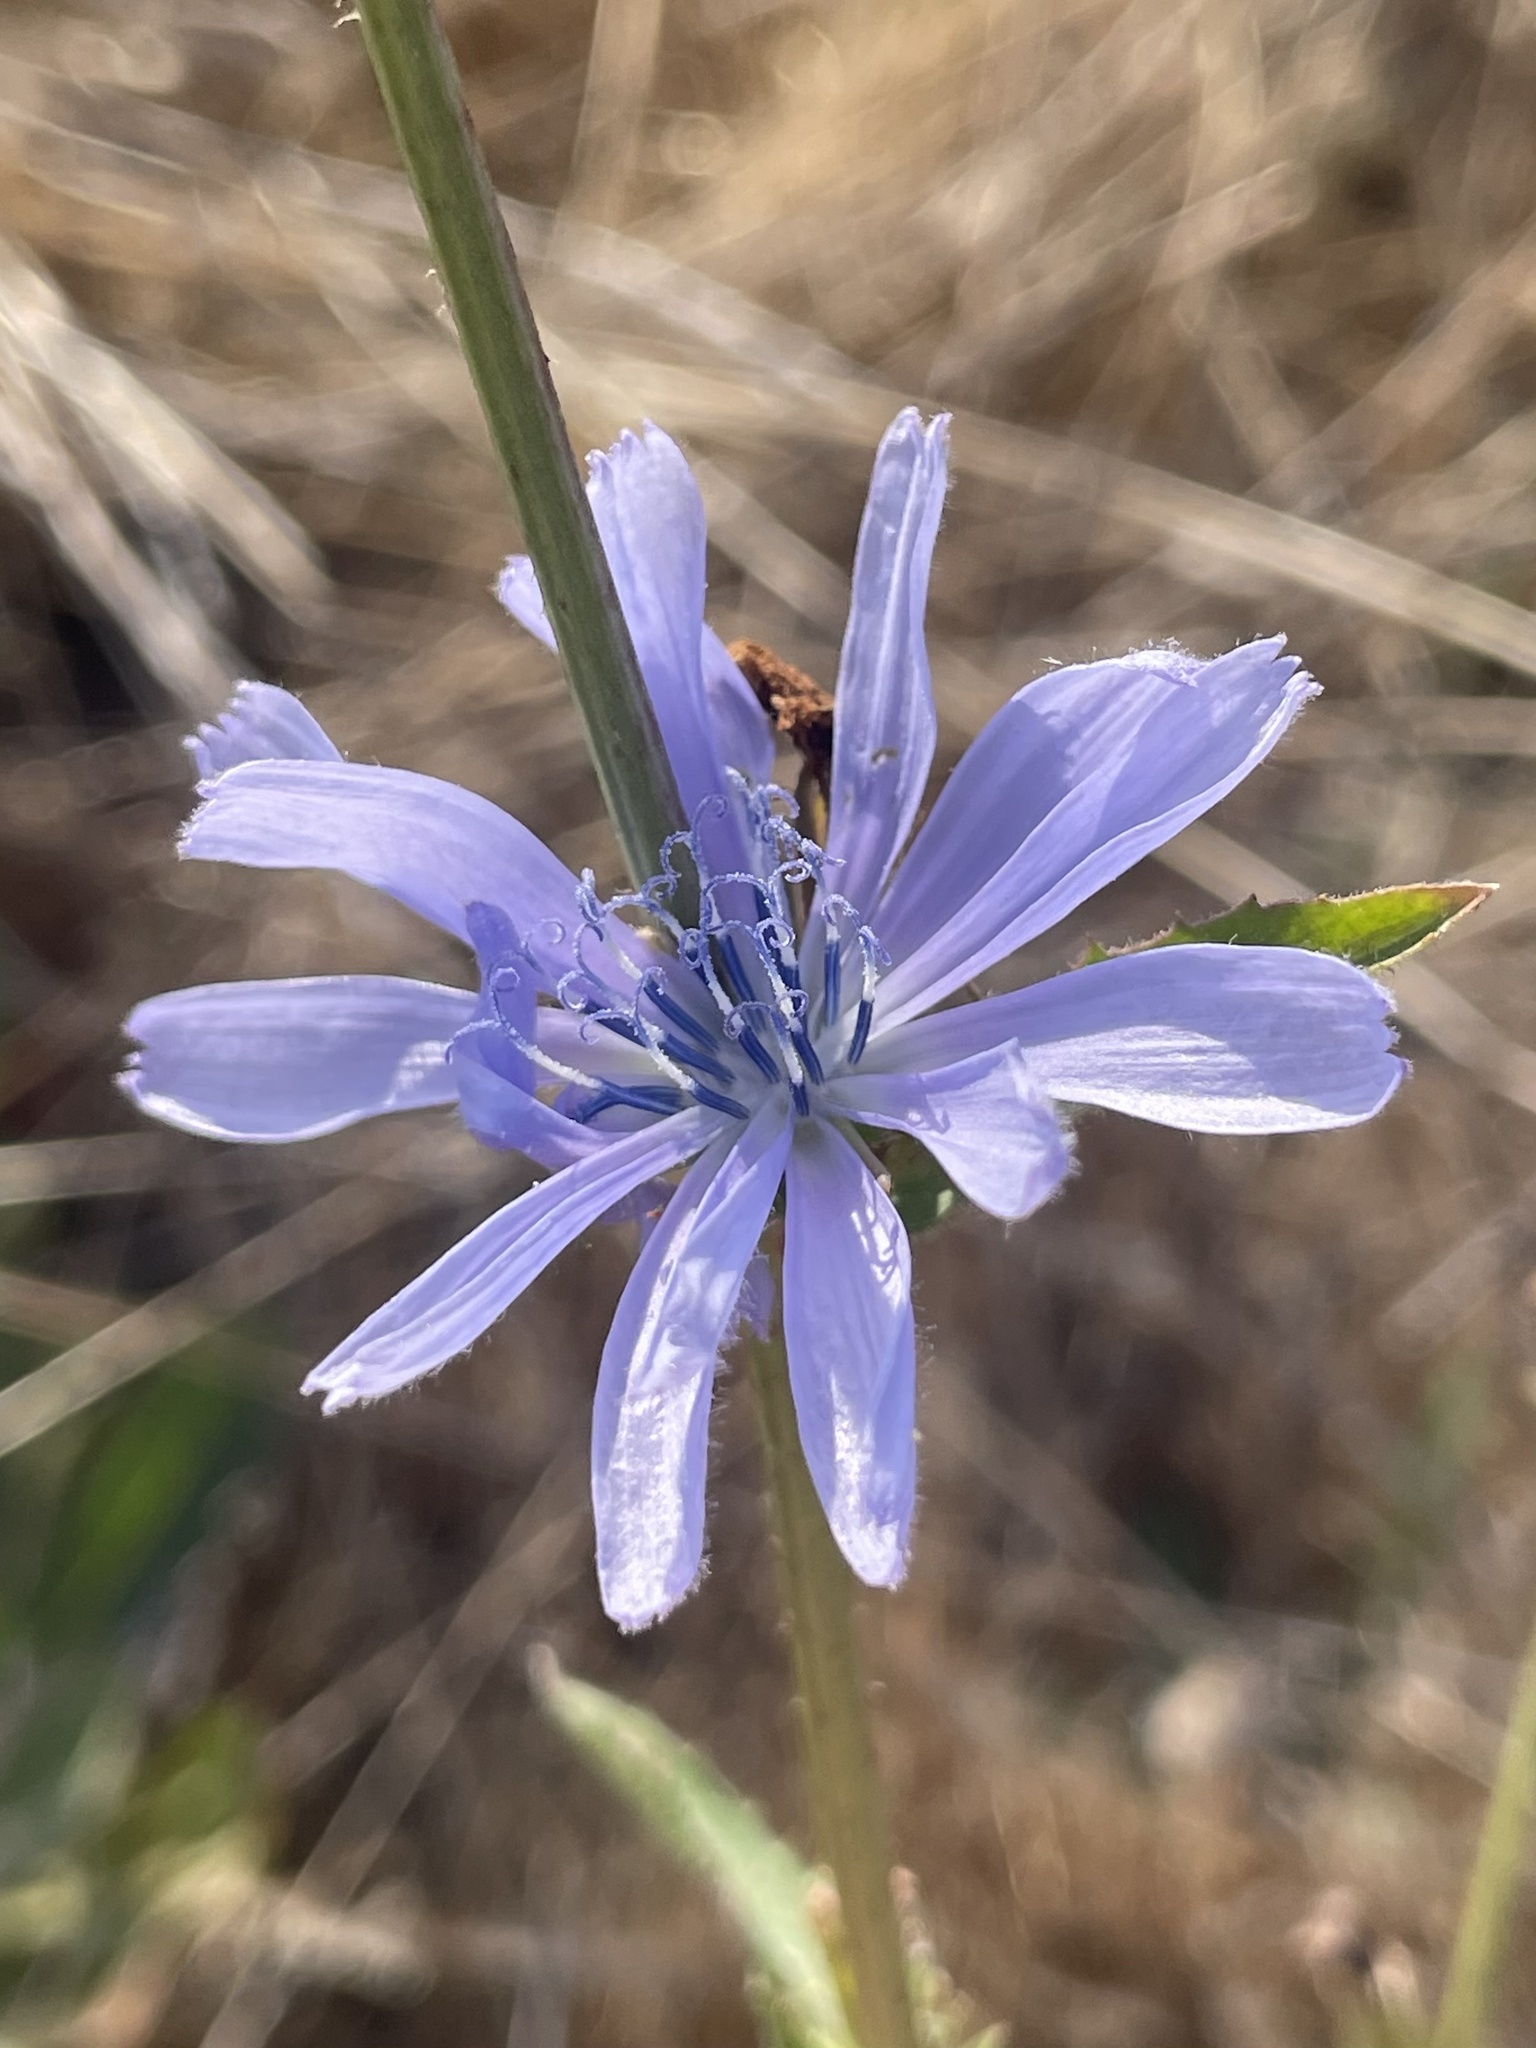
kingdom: Plantae
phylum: Tracheophyta
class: Magnoliopsida
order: Asterales
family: Asteraceae
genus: Cichorium
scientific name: Cichorium intybus
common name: Chicory
